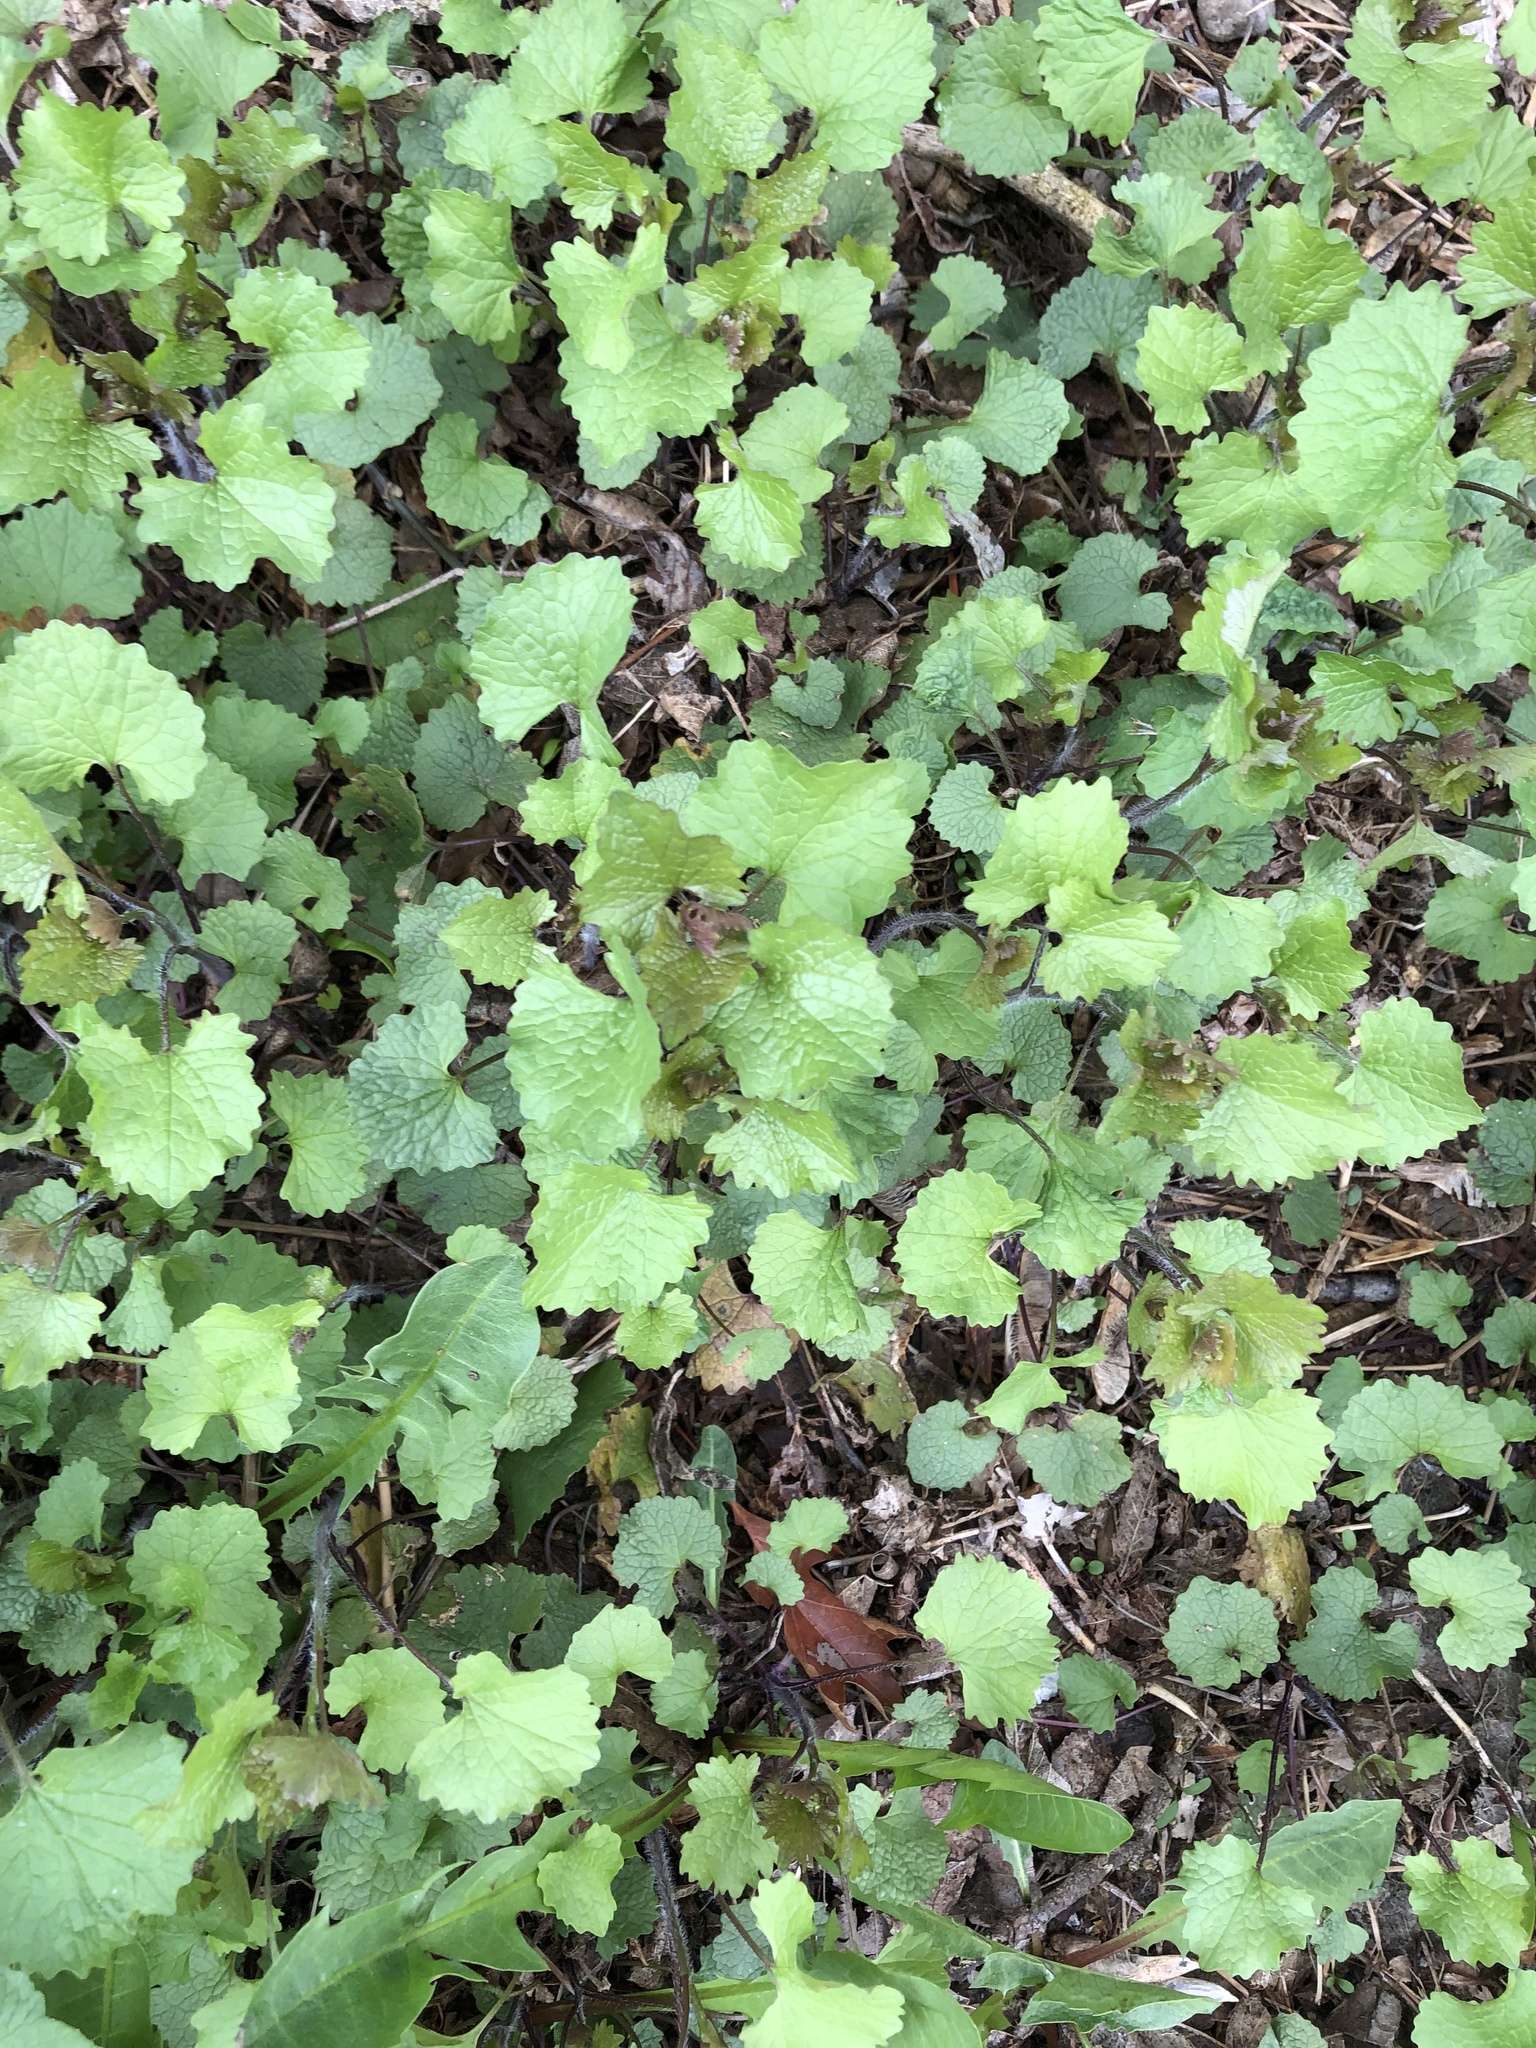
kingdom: Plantae
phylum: Tracheophyta
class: Magnoliopsida
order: Brassicales
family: Brassicaceae
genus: Alliaria
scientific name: Alliaria petiolata
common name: Garlic mustard
